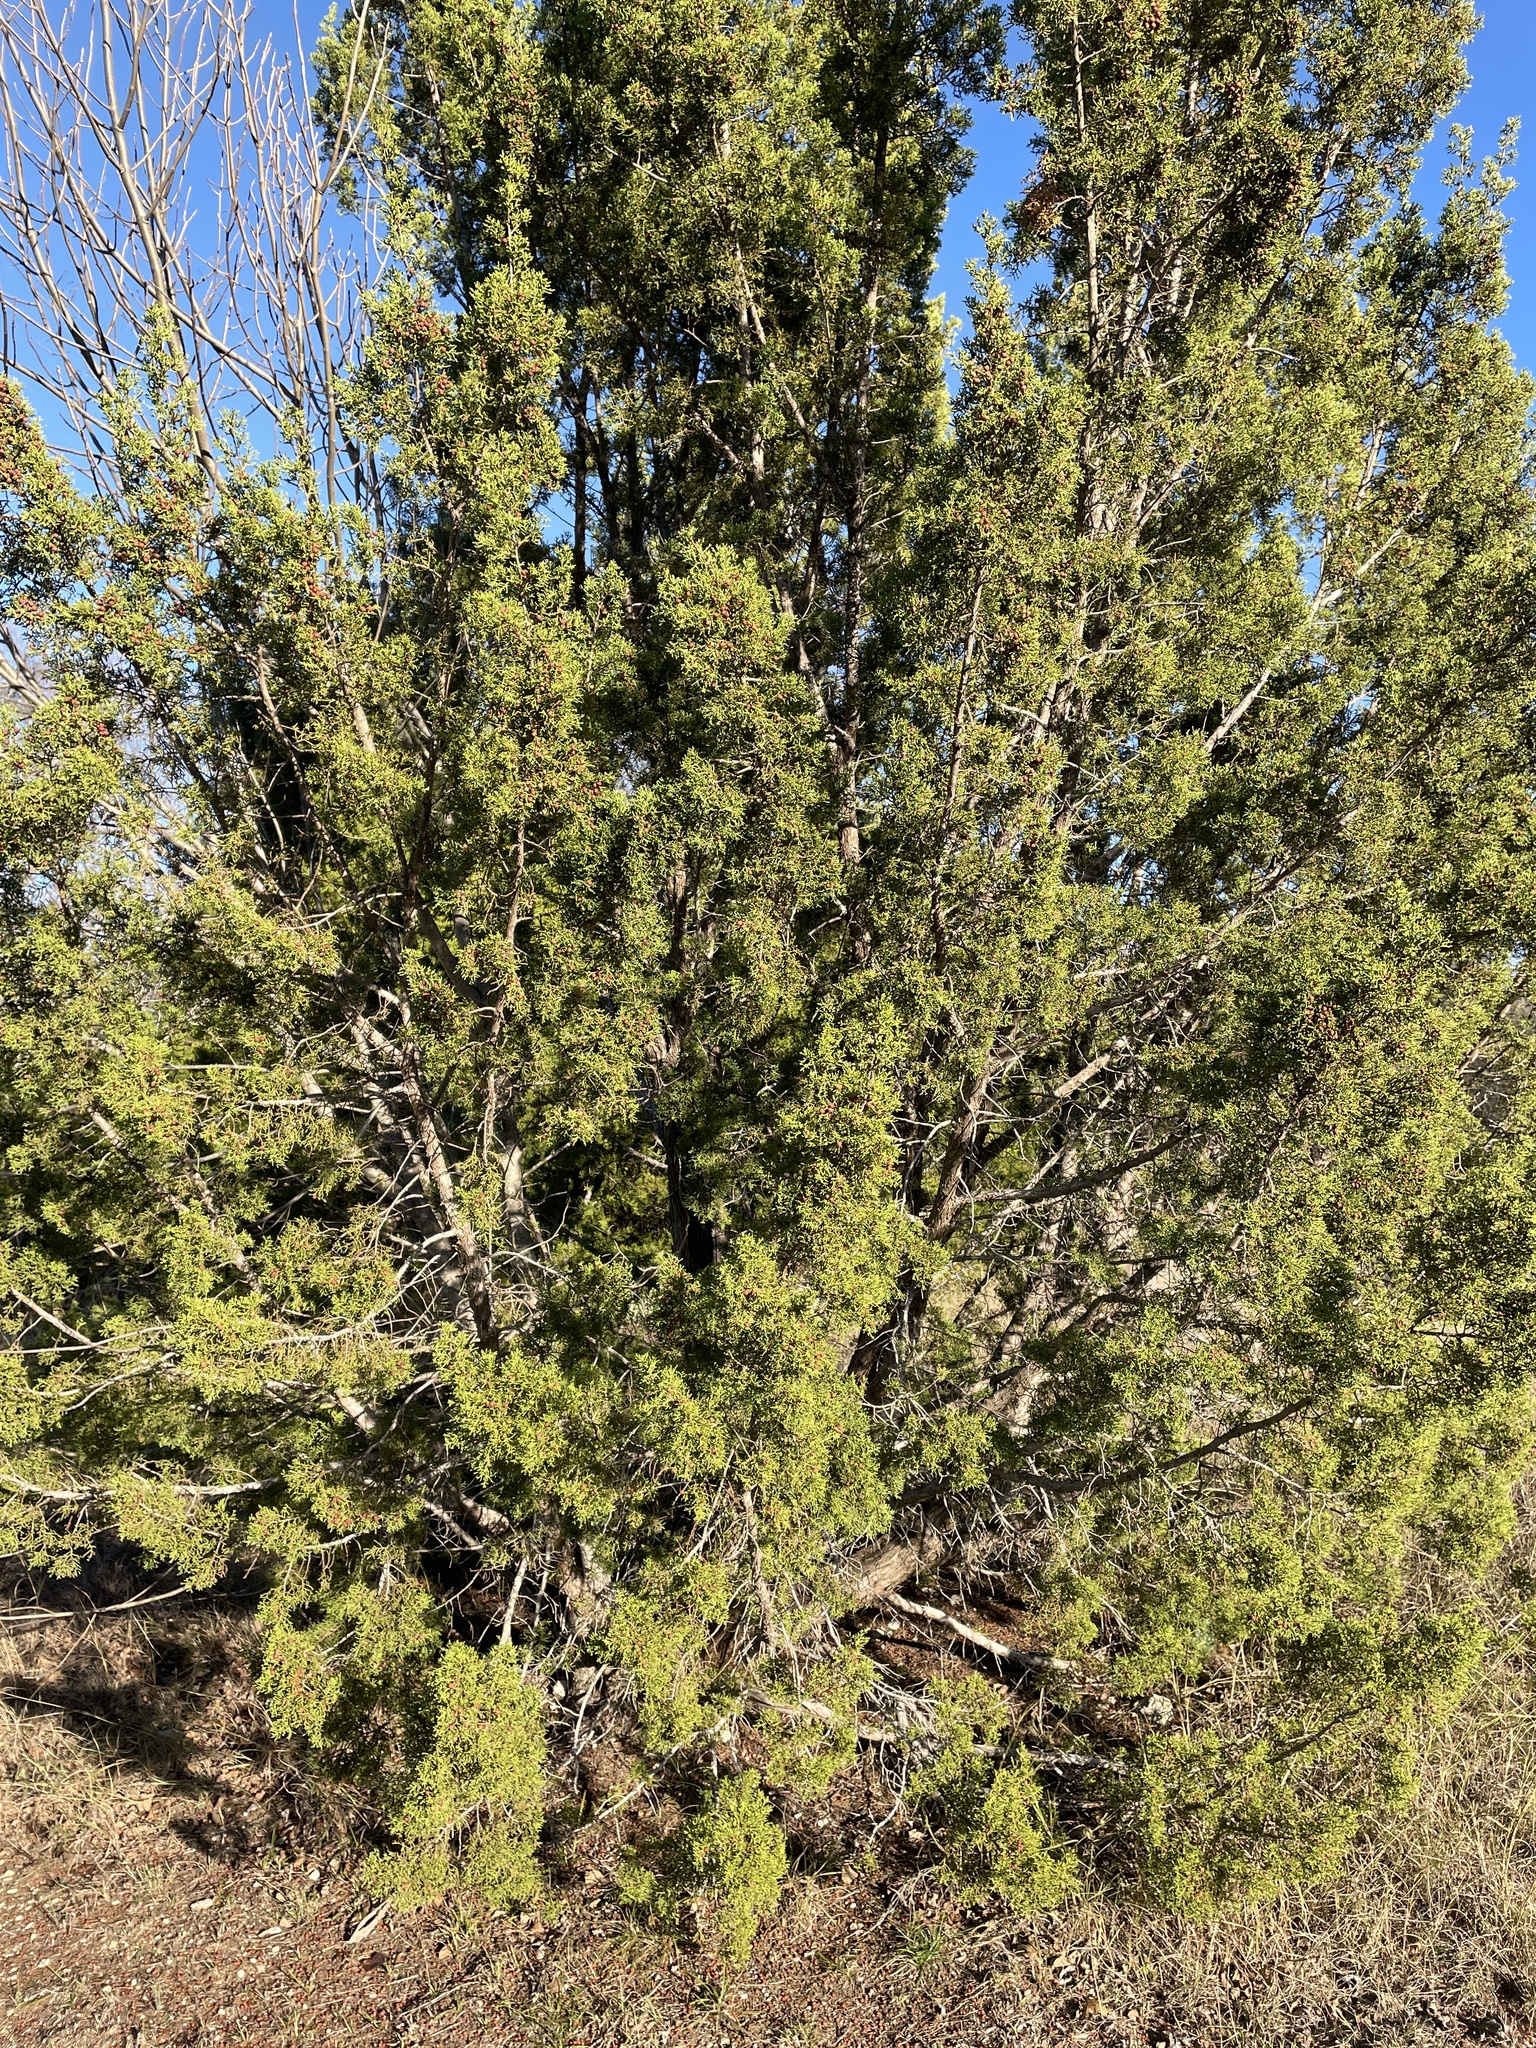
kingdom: Plantae
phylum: Tracheophyta
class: Pinopsida
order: Pinales
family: Cupressaceae
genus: Juniperus
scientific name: Juniperus pinchotii
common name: Pinchot juniper
